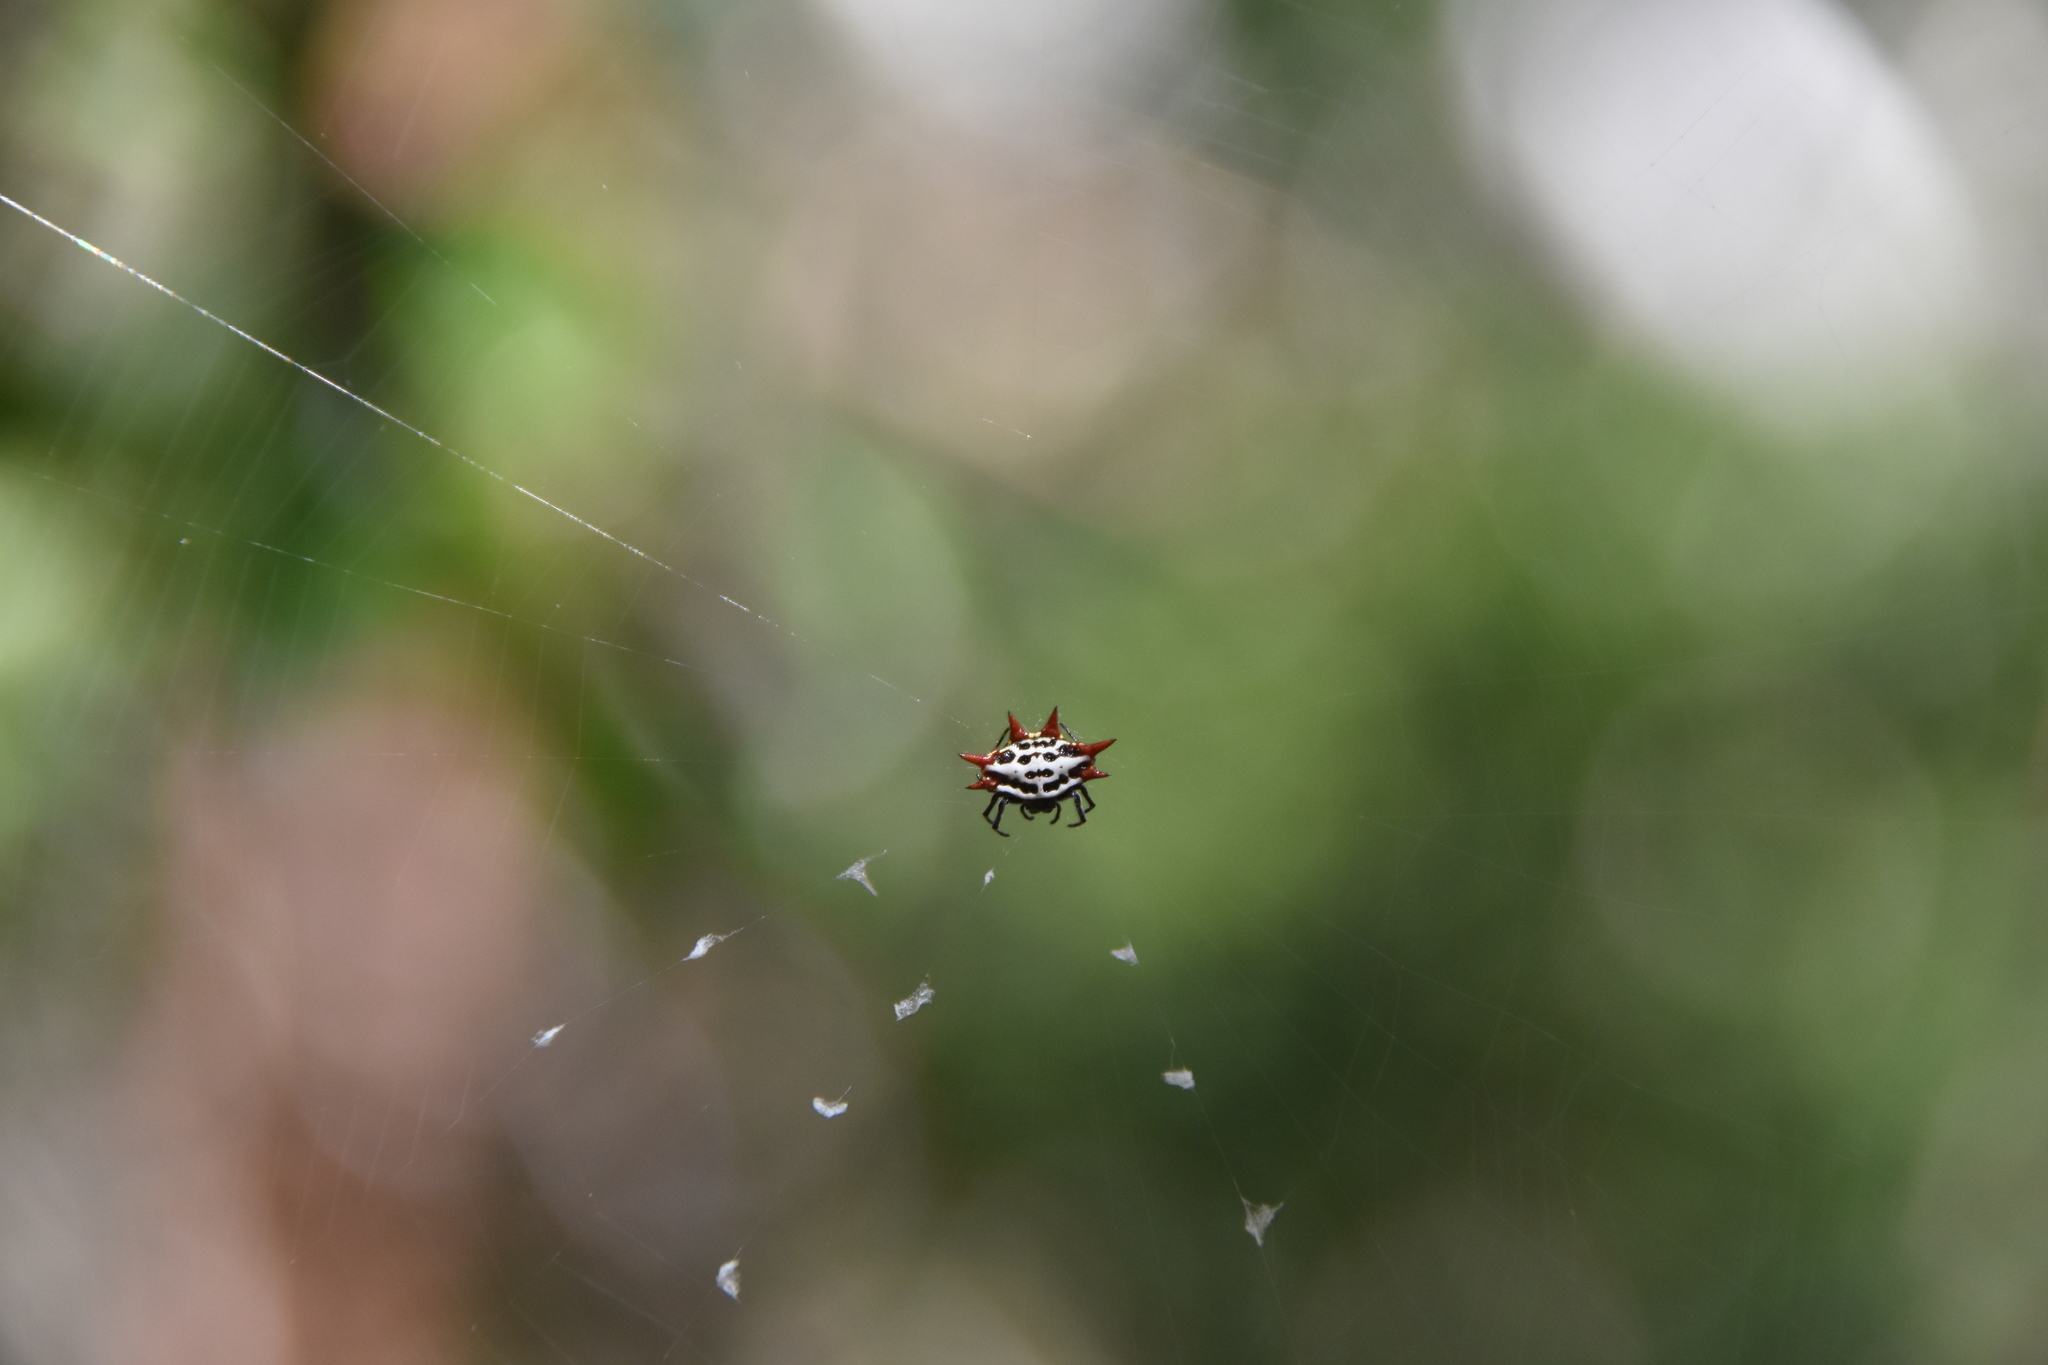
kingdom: Animalia
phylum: Arthropoda
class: Arachnida
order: Araneae
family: Araneidae
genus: Gasteracantha
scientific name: Gasteracantha cancriformis
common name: Orb weavers
